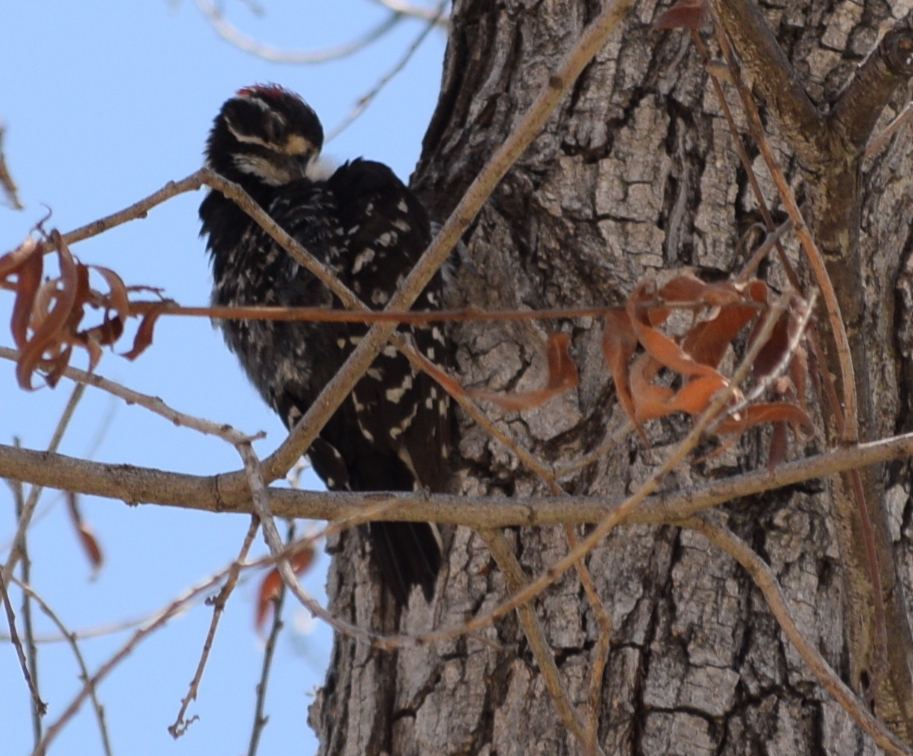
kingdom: Animalia
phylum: Chordata
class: Aves
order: Piciformes
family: Picidae
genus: Dryobates
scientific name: Dryobates nuttallii
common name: Nuttall's woodpecker
